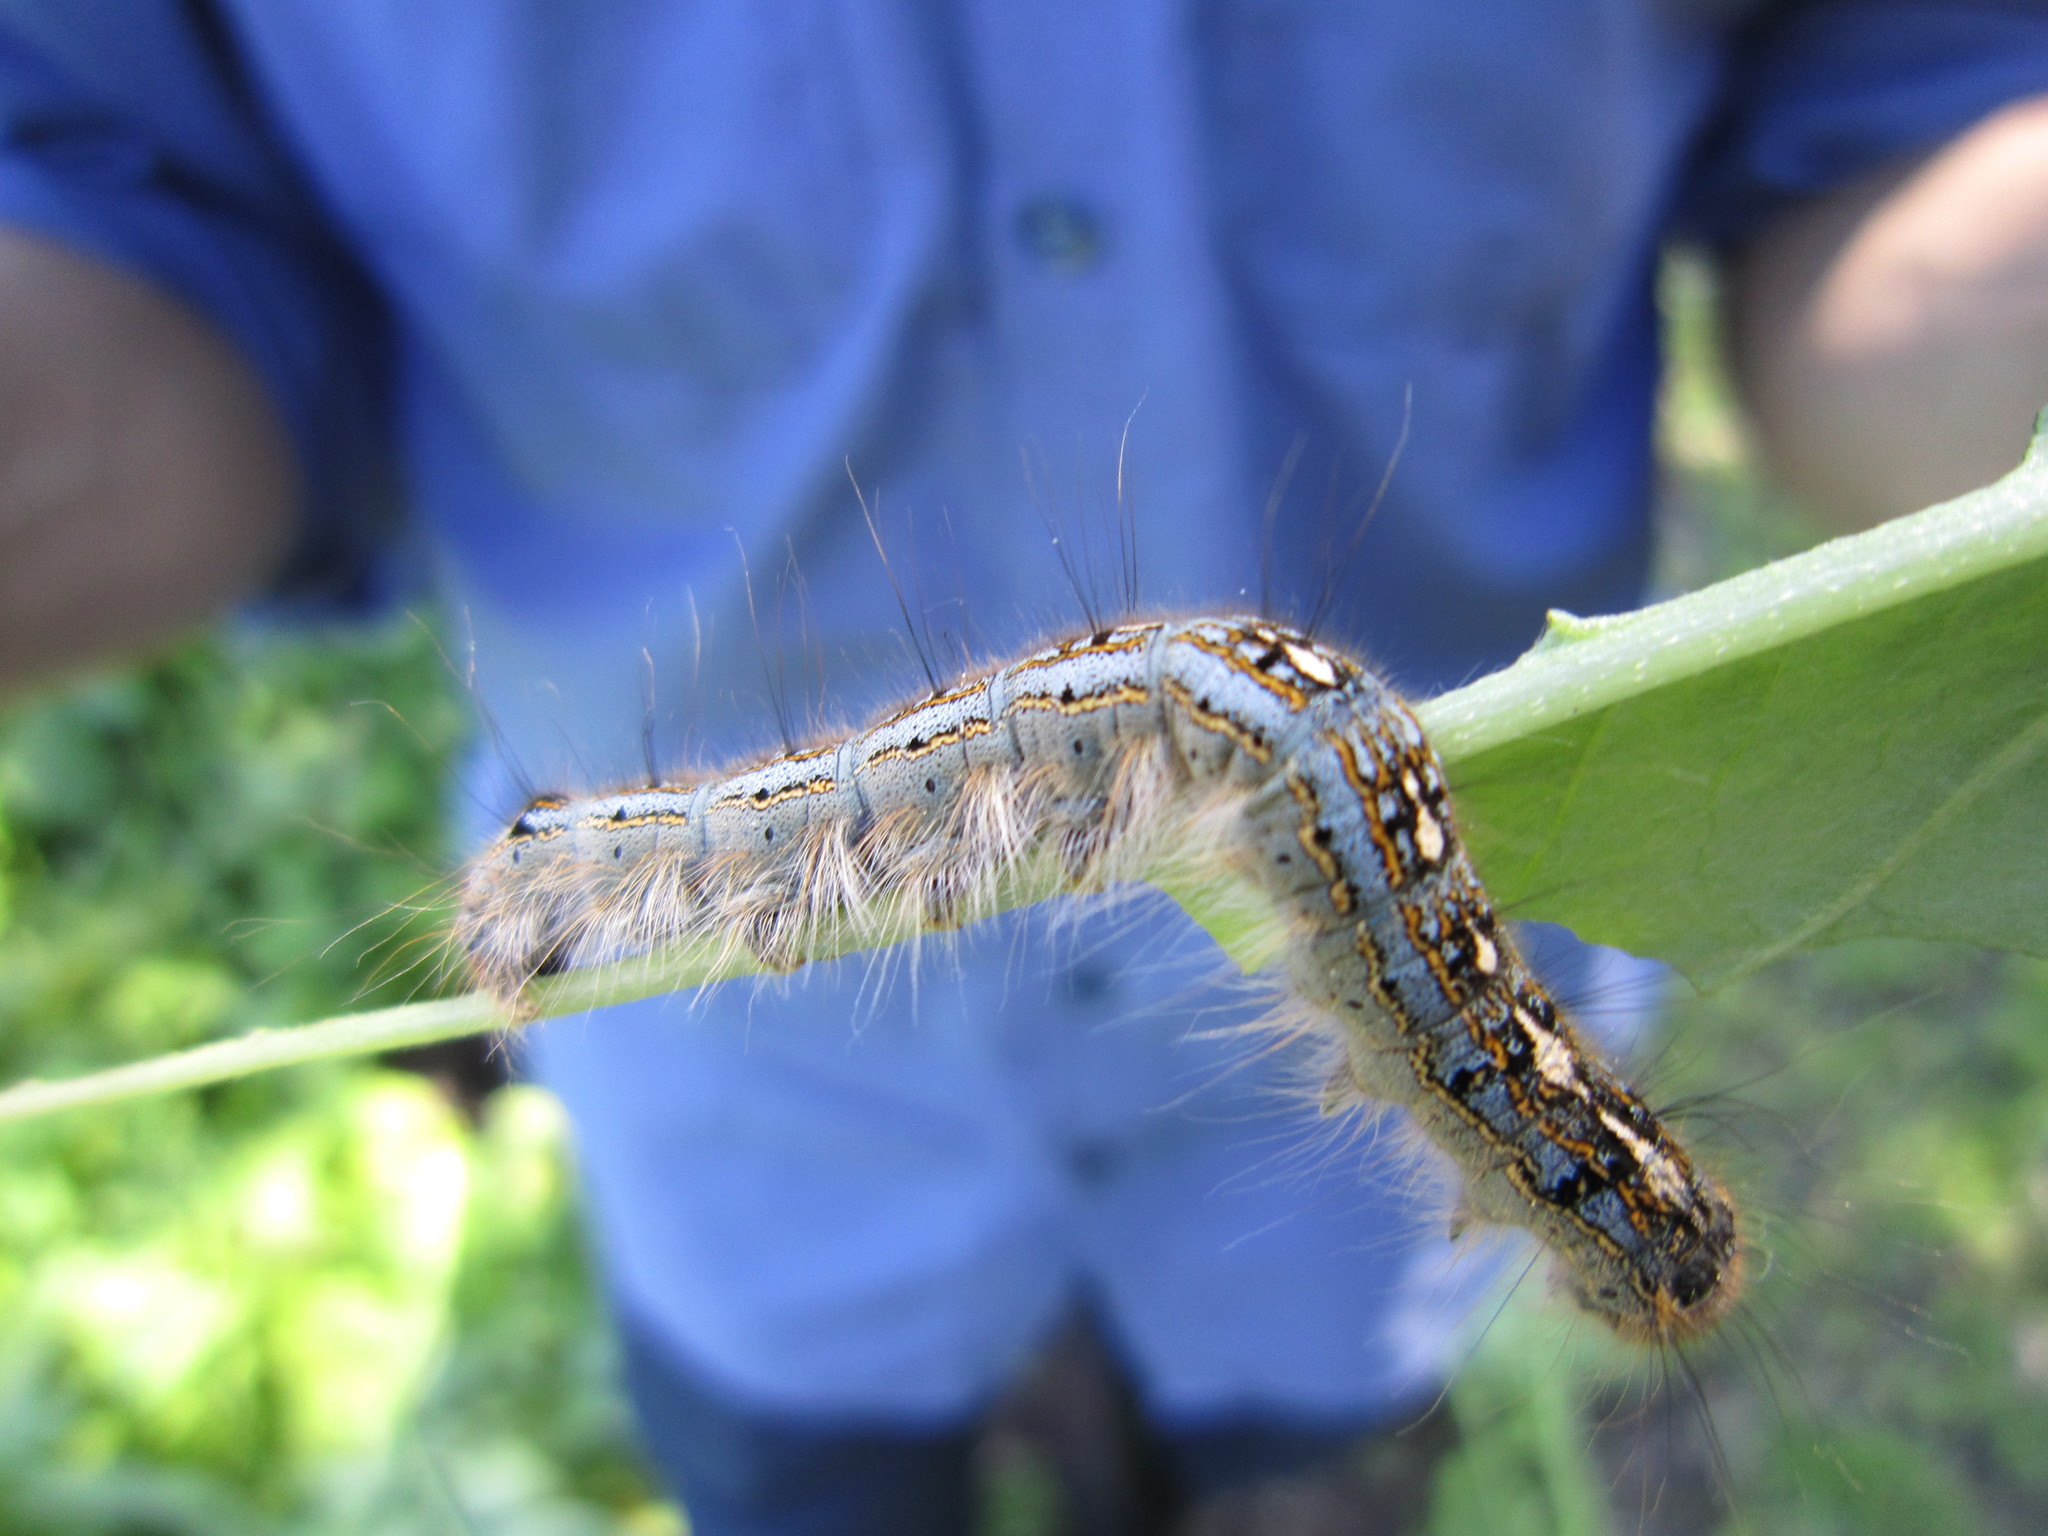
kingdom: Animalia
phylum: Arthropoda
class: Insecta
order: Lepidoptera
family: Lasiocampidae
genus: Malacosoma
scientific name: Malacosoma disstria
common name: Forest tent caterpillar
